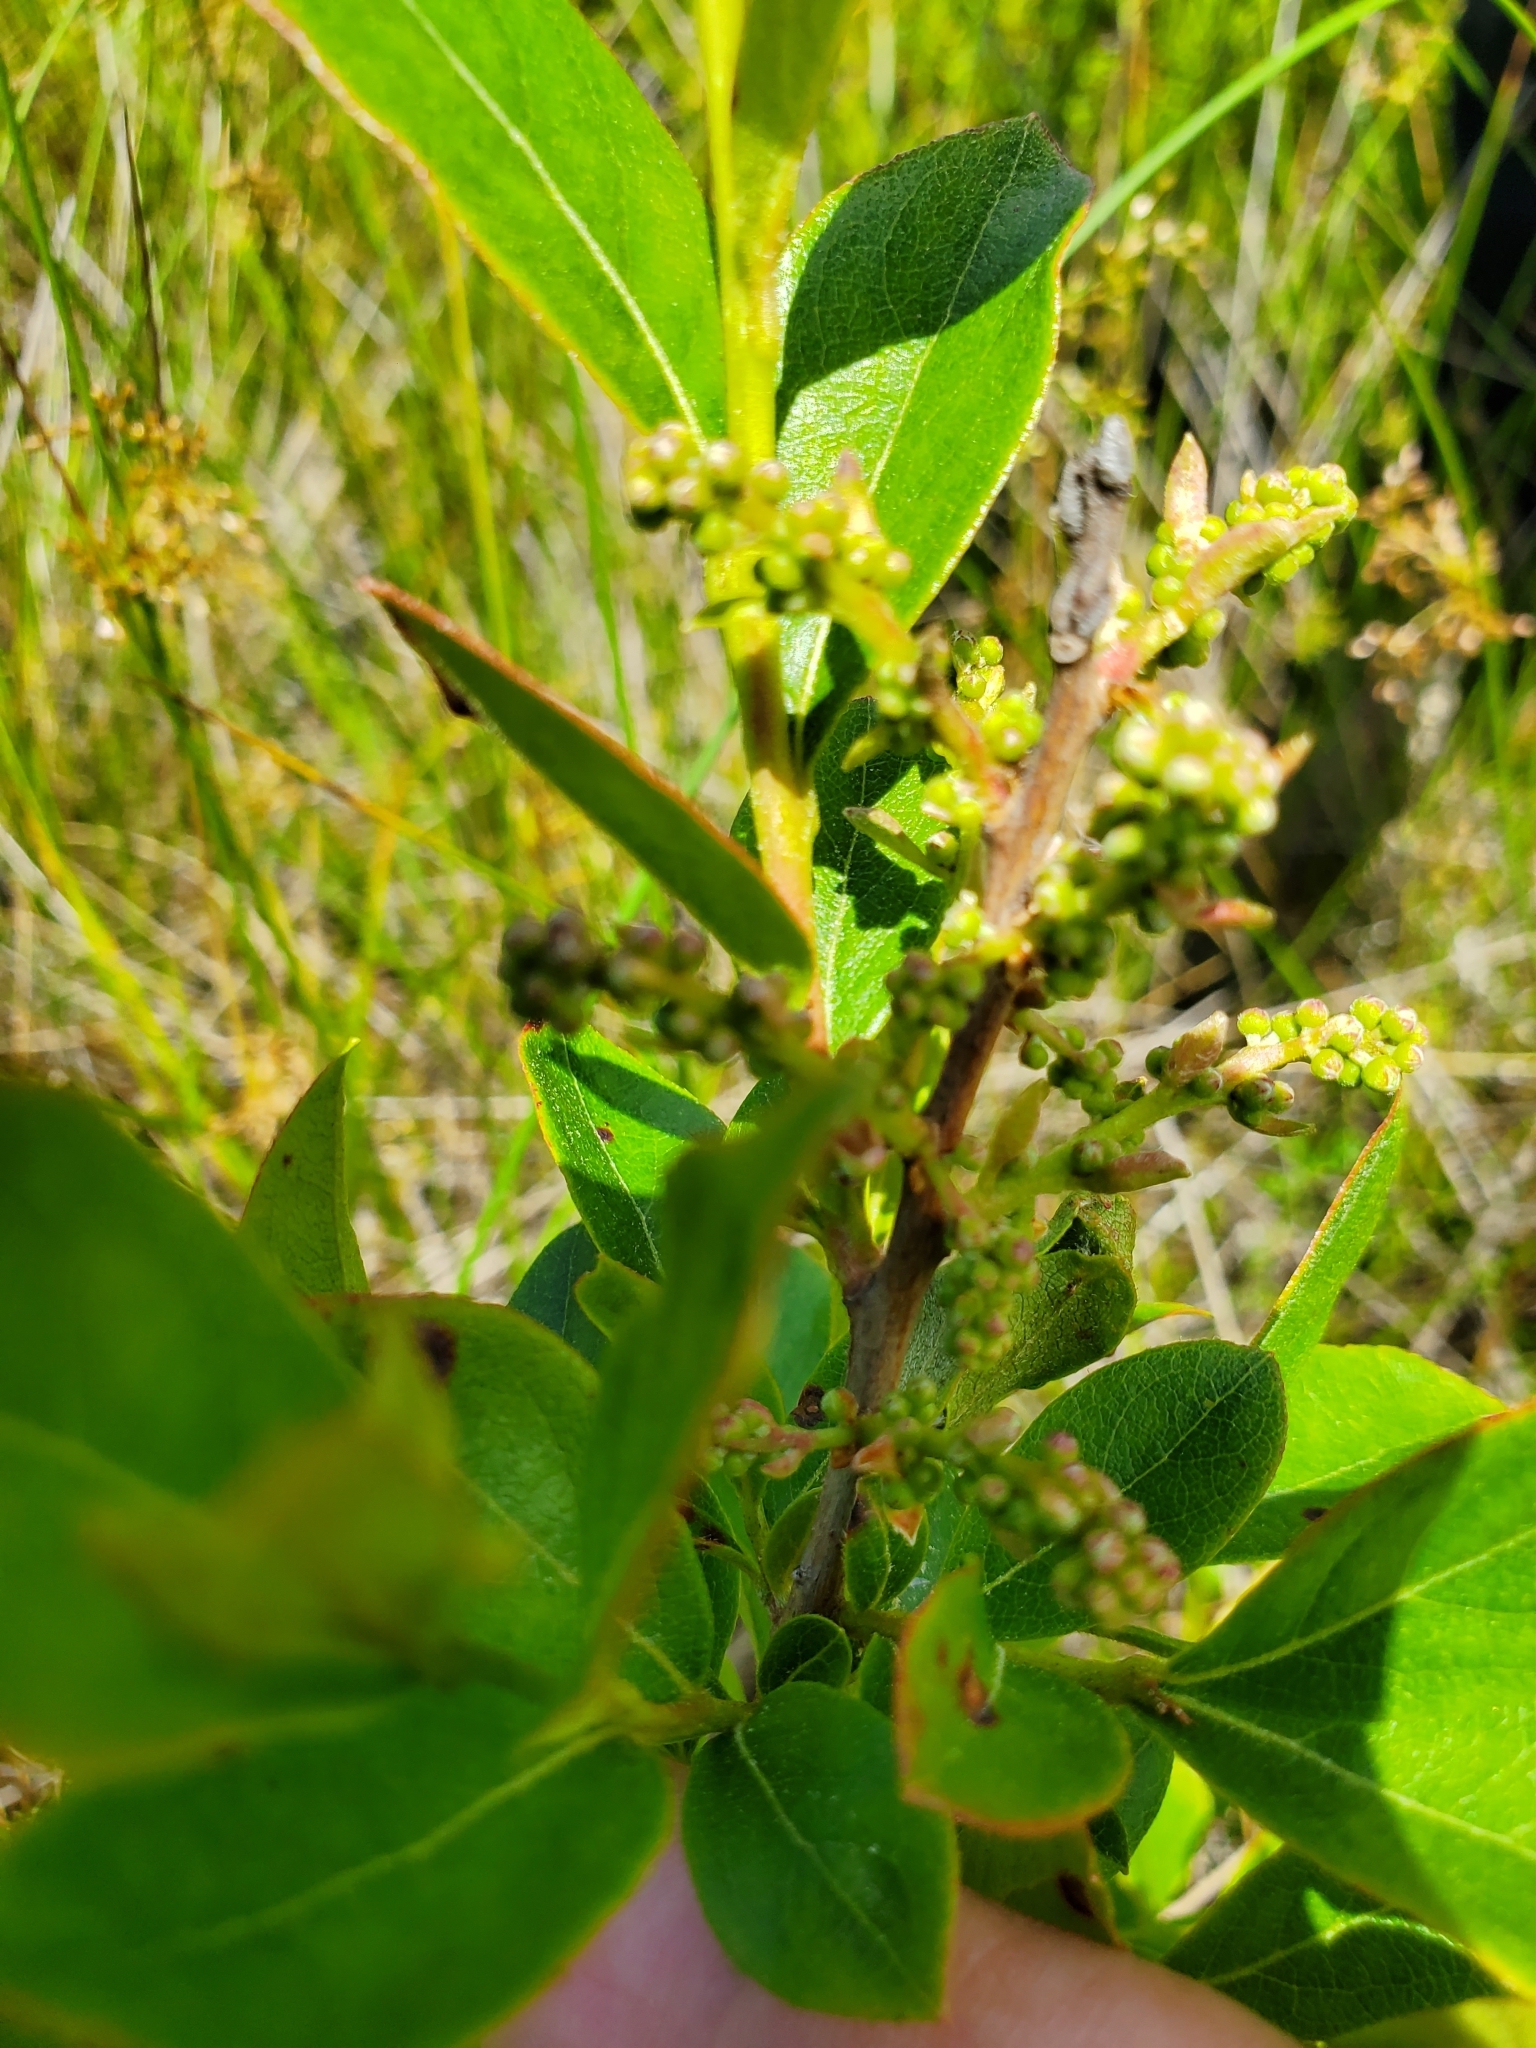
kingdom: Plantae
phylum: Tracheophyta
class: Magnoliopsida
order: Ericales
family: Ericaceae
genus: Lyonia
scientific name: Lyonia ligustrina
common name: Maleberry
